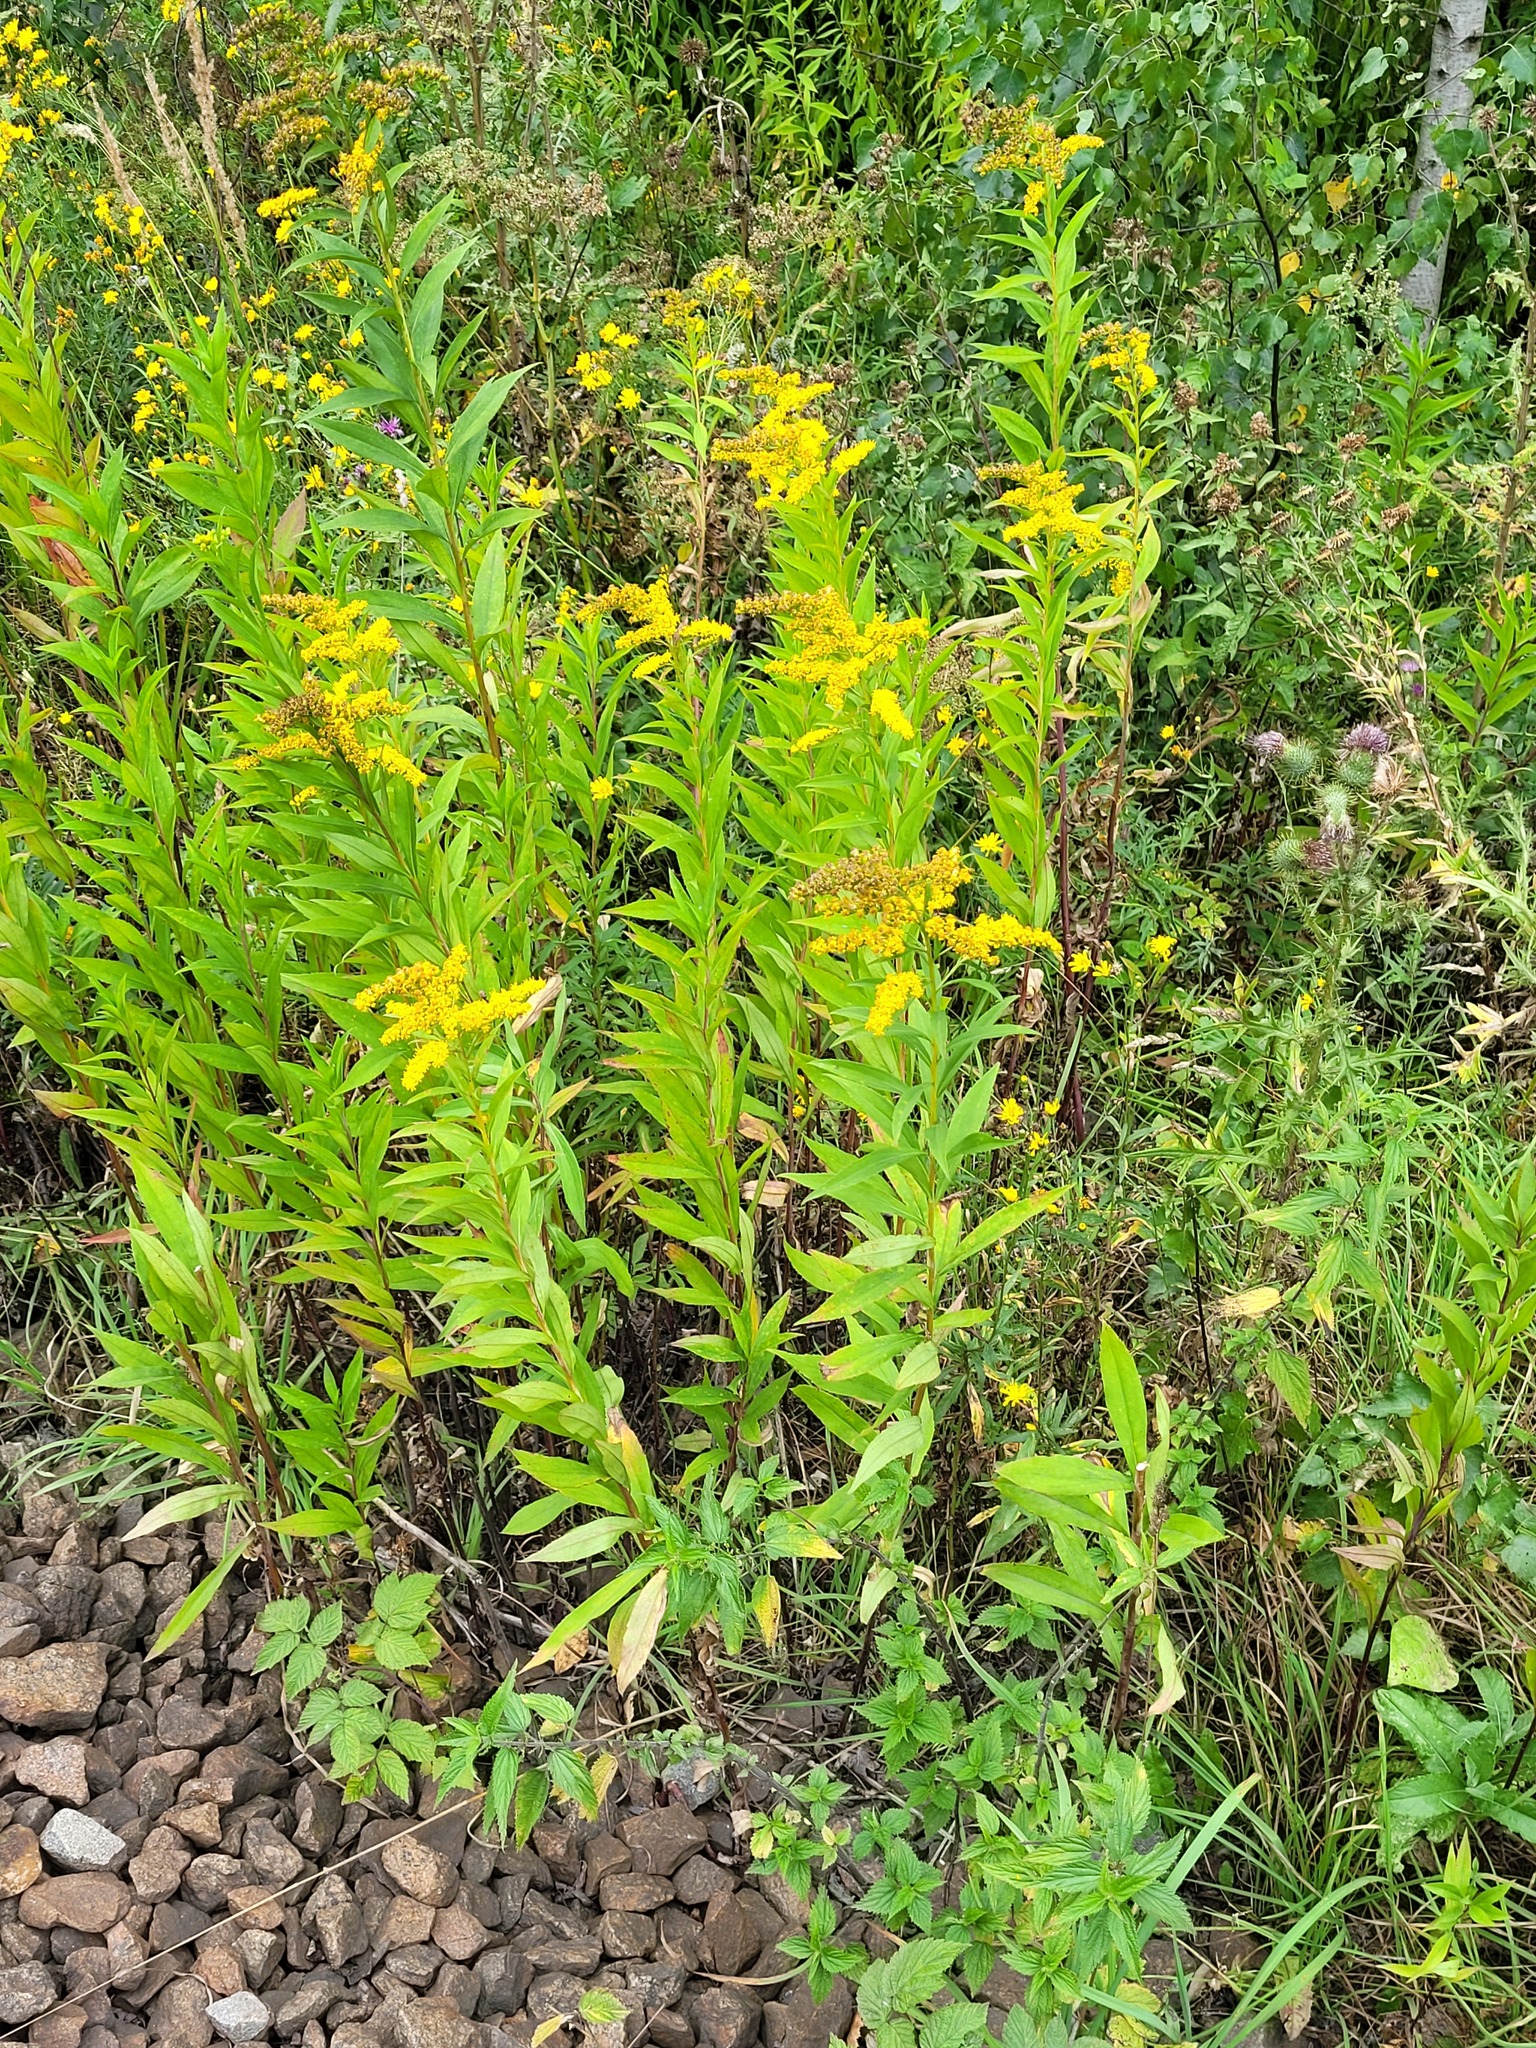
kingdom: Plantae
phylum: Tracheophyta
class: Magnoliopsida
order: Asterales
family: Asteraceae
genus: Solidago
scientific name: Solidago gigantea
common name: Giant goldenrod
